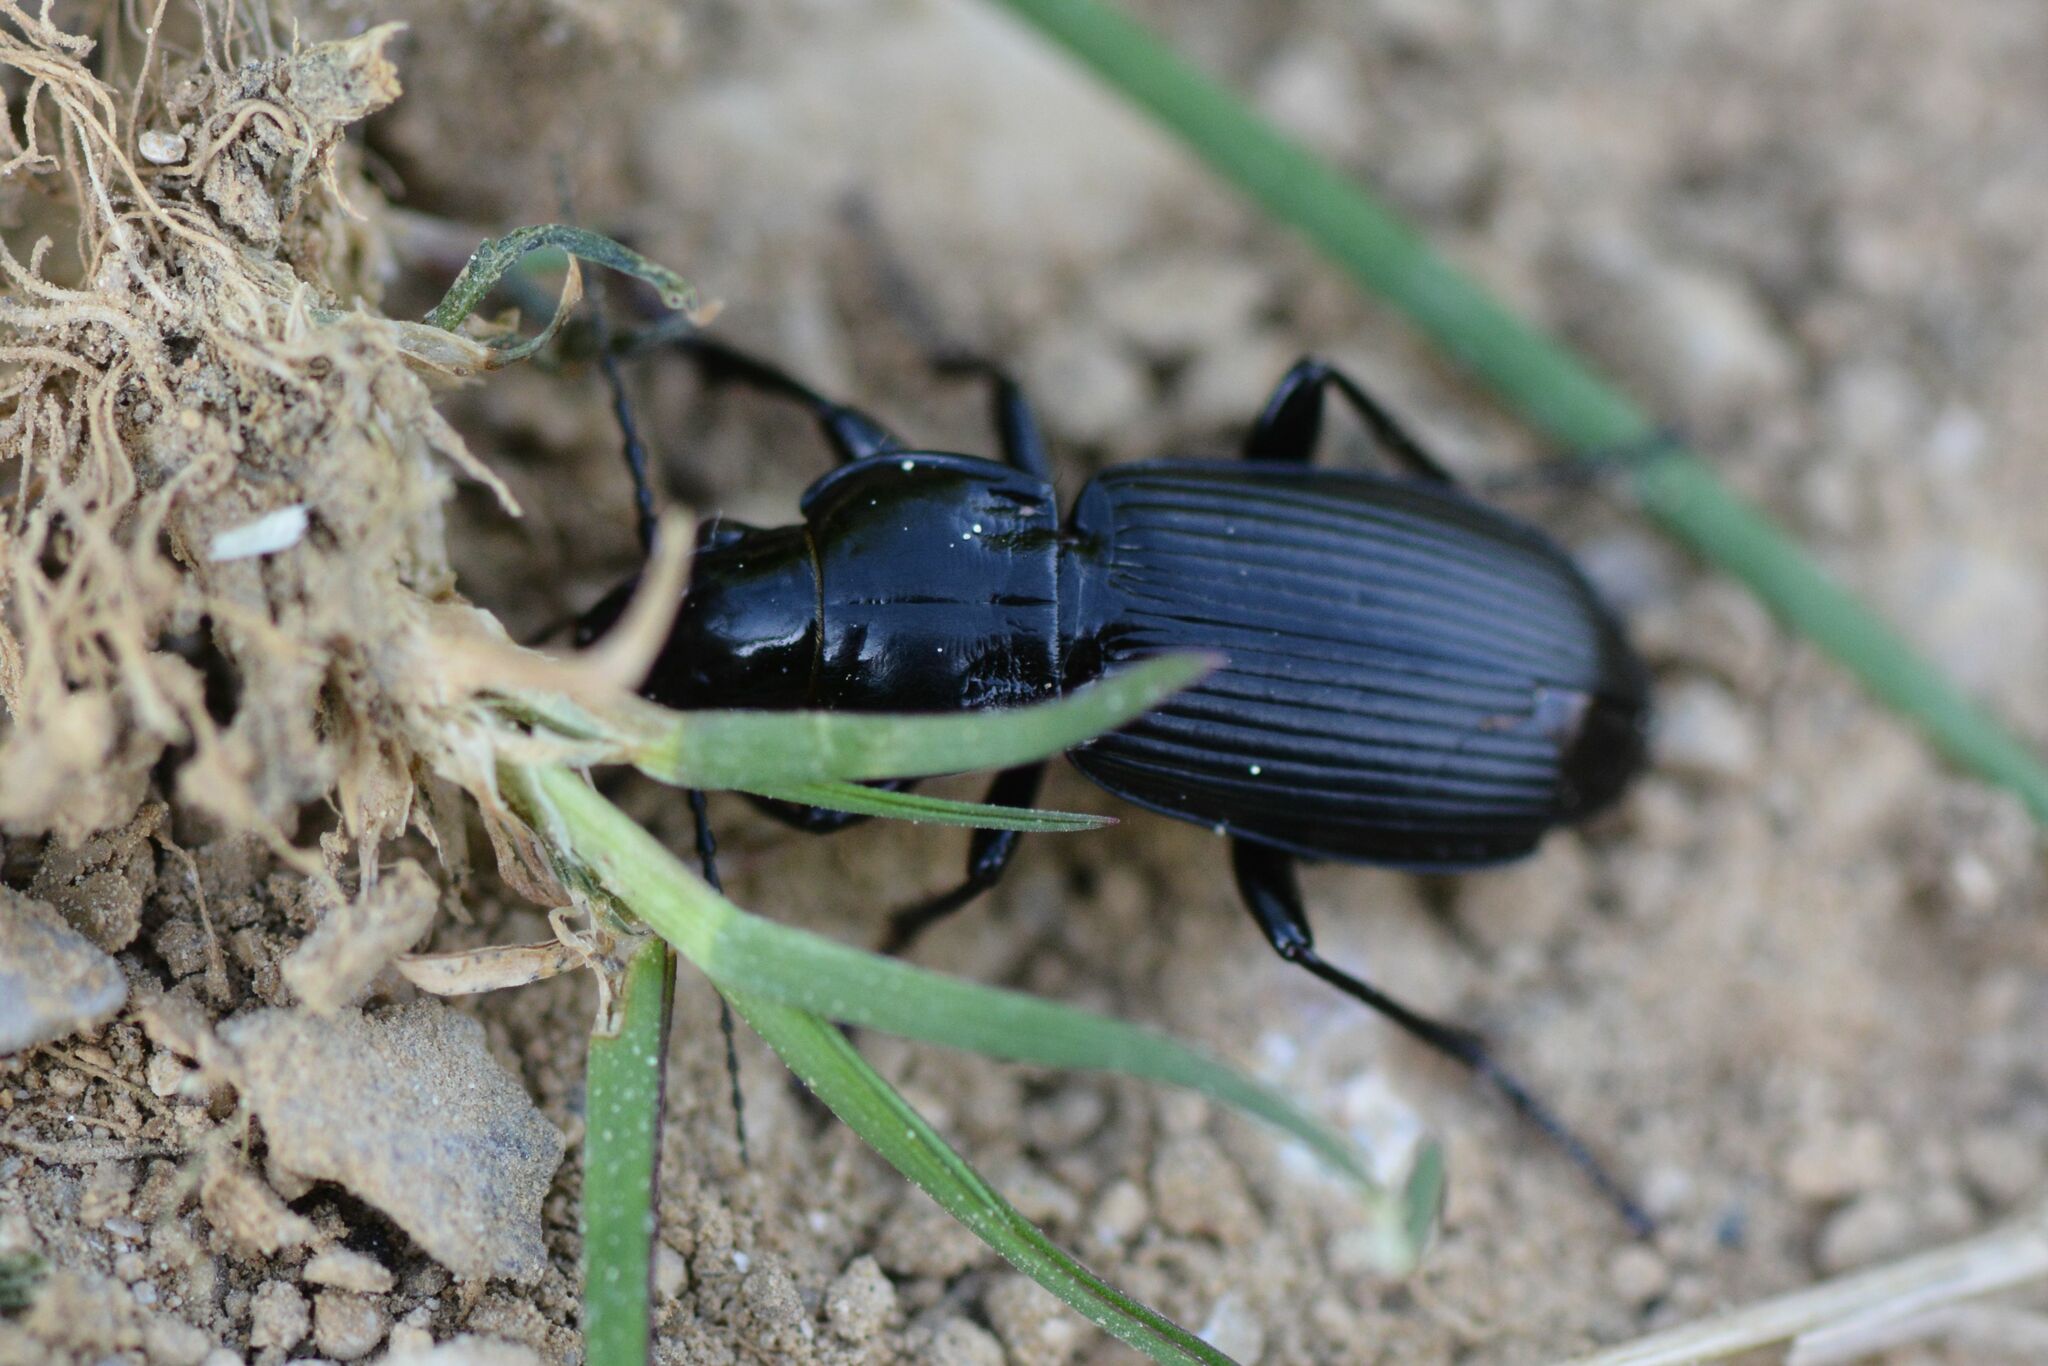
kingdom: Animalia
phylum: Arthropoda
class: Insecta
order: Coleoptera
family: Carabidae
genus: Pterostichus
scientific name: Pterostichus melanarius
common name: European dark harp ground beetle
